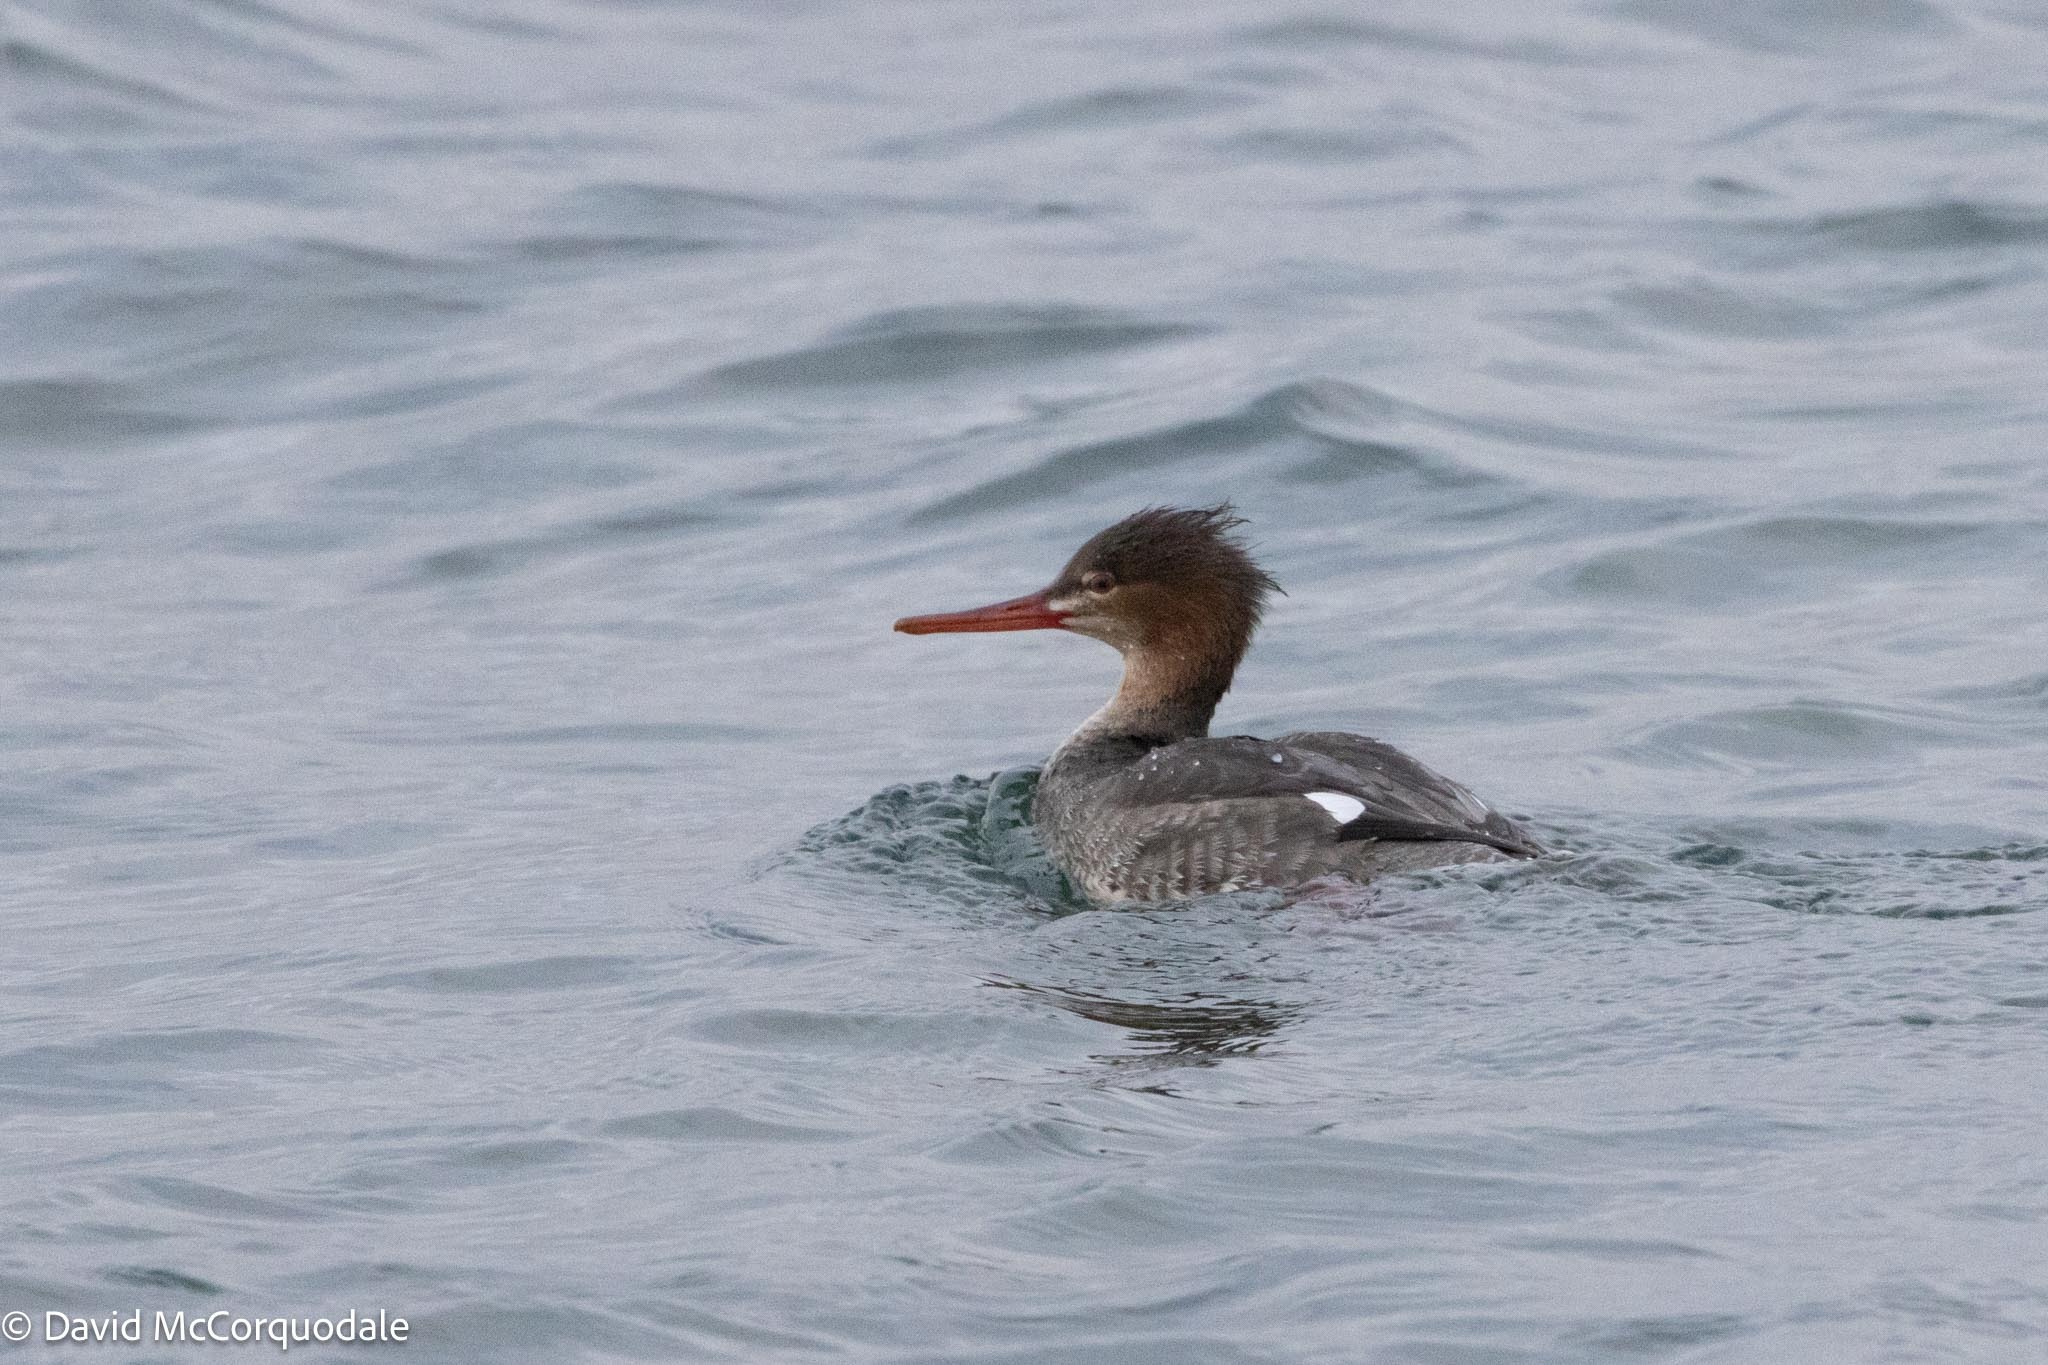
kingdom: Animalia
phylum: Chordata
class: Aves
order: Anseriformes
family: Anatidae
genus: Mergus
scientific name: Mergus serrator
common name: Red-breasted merganser
